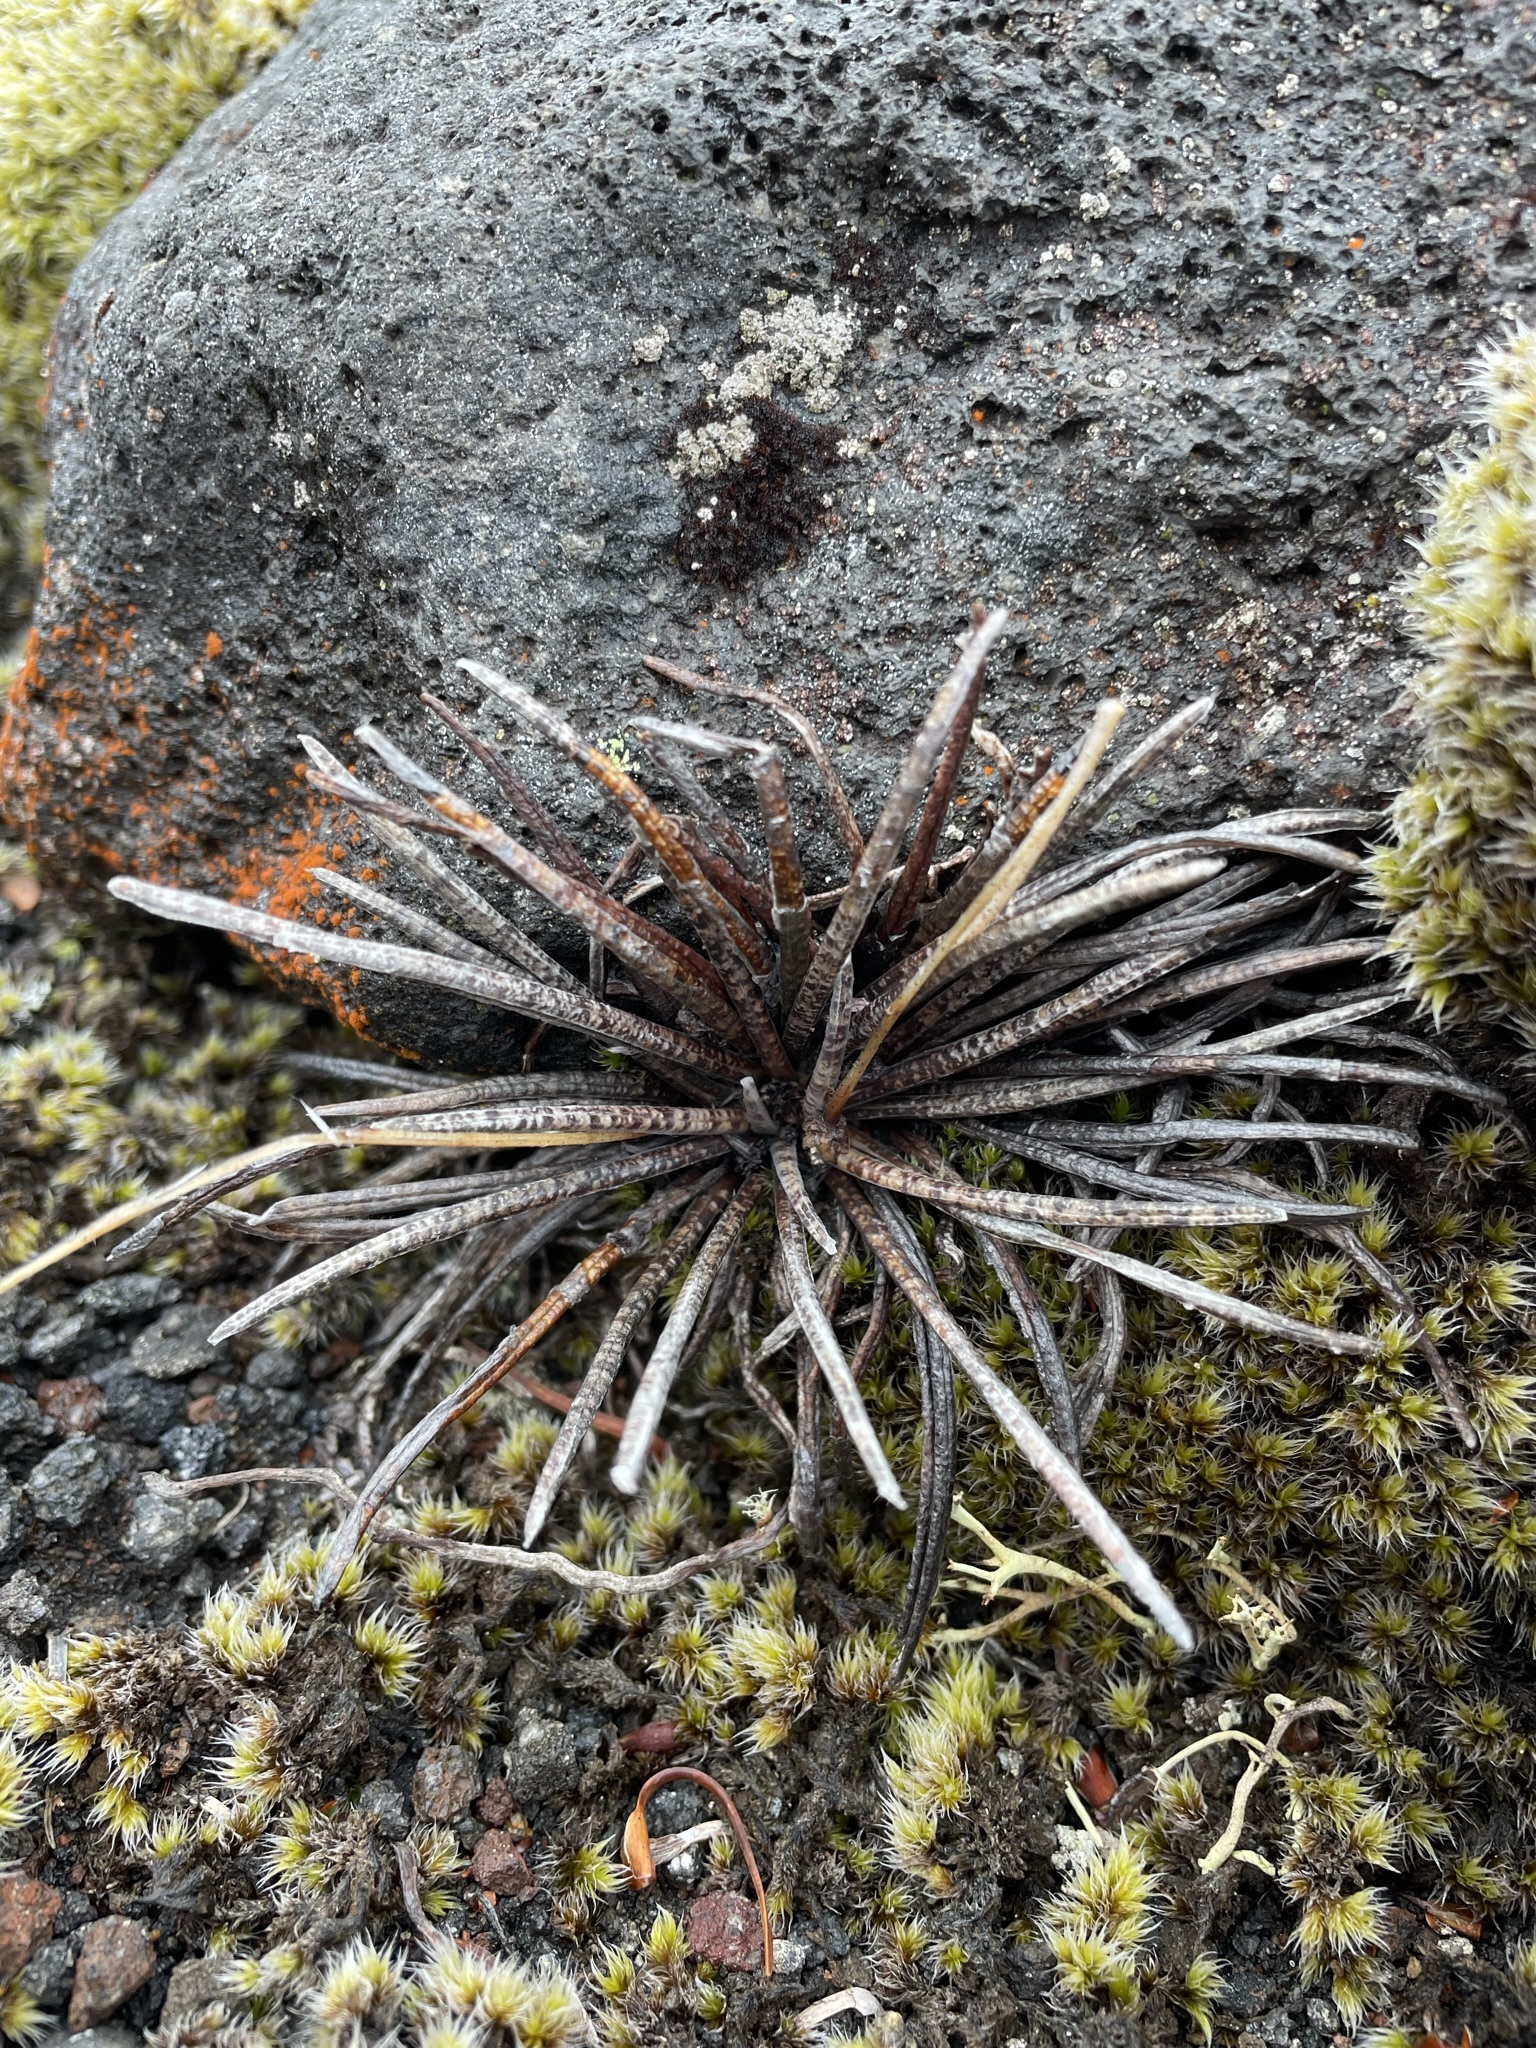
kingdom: Plantae
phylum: Tracheophyta
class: Magnoliopsida
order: Asterales
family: Asteraceae
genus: Celmisia
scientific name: Celmisia gracilenta
